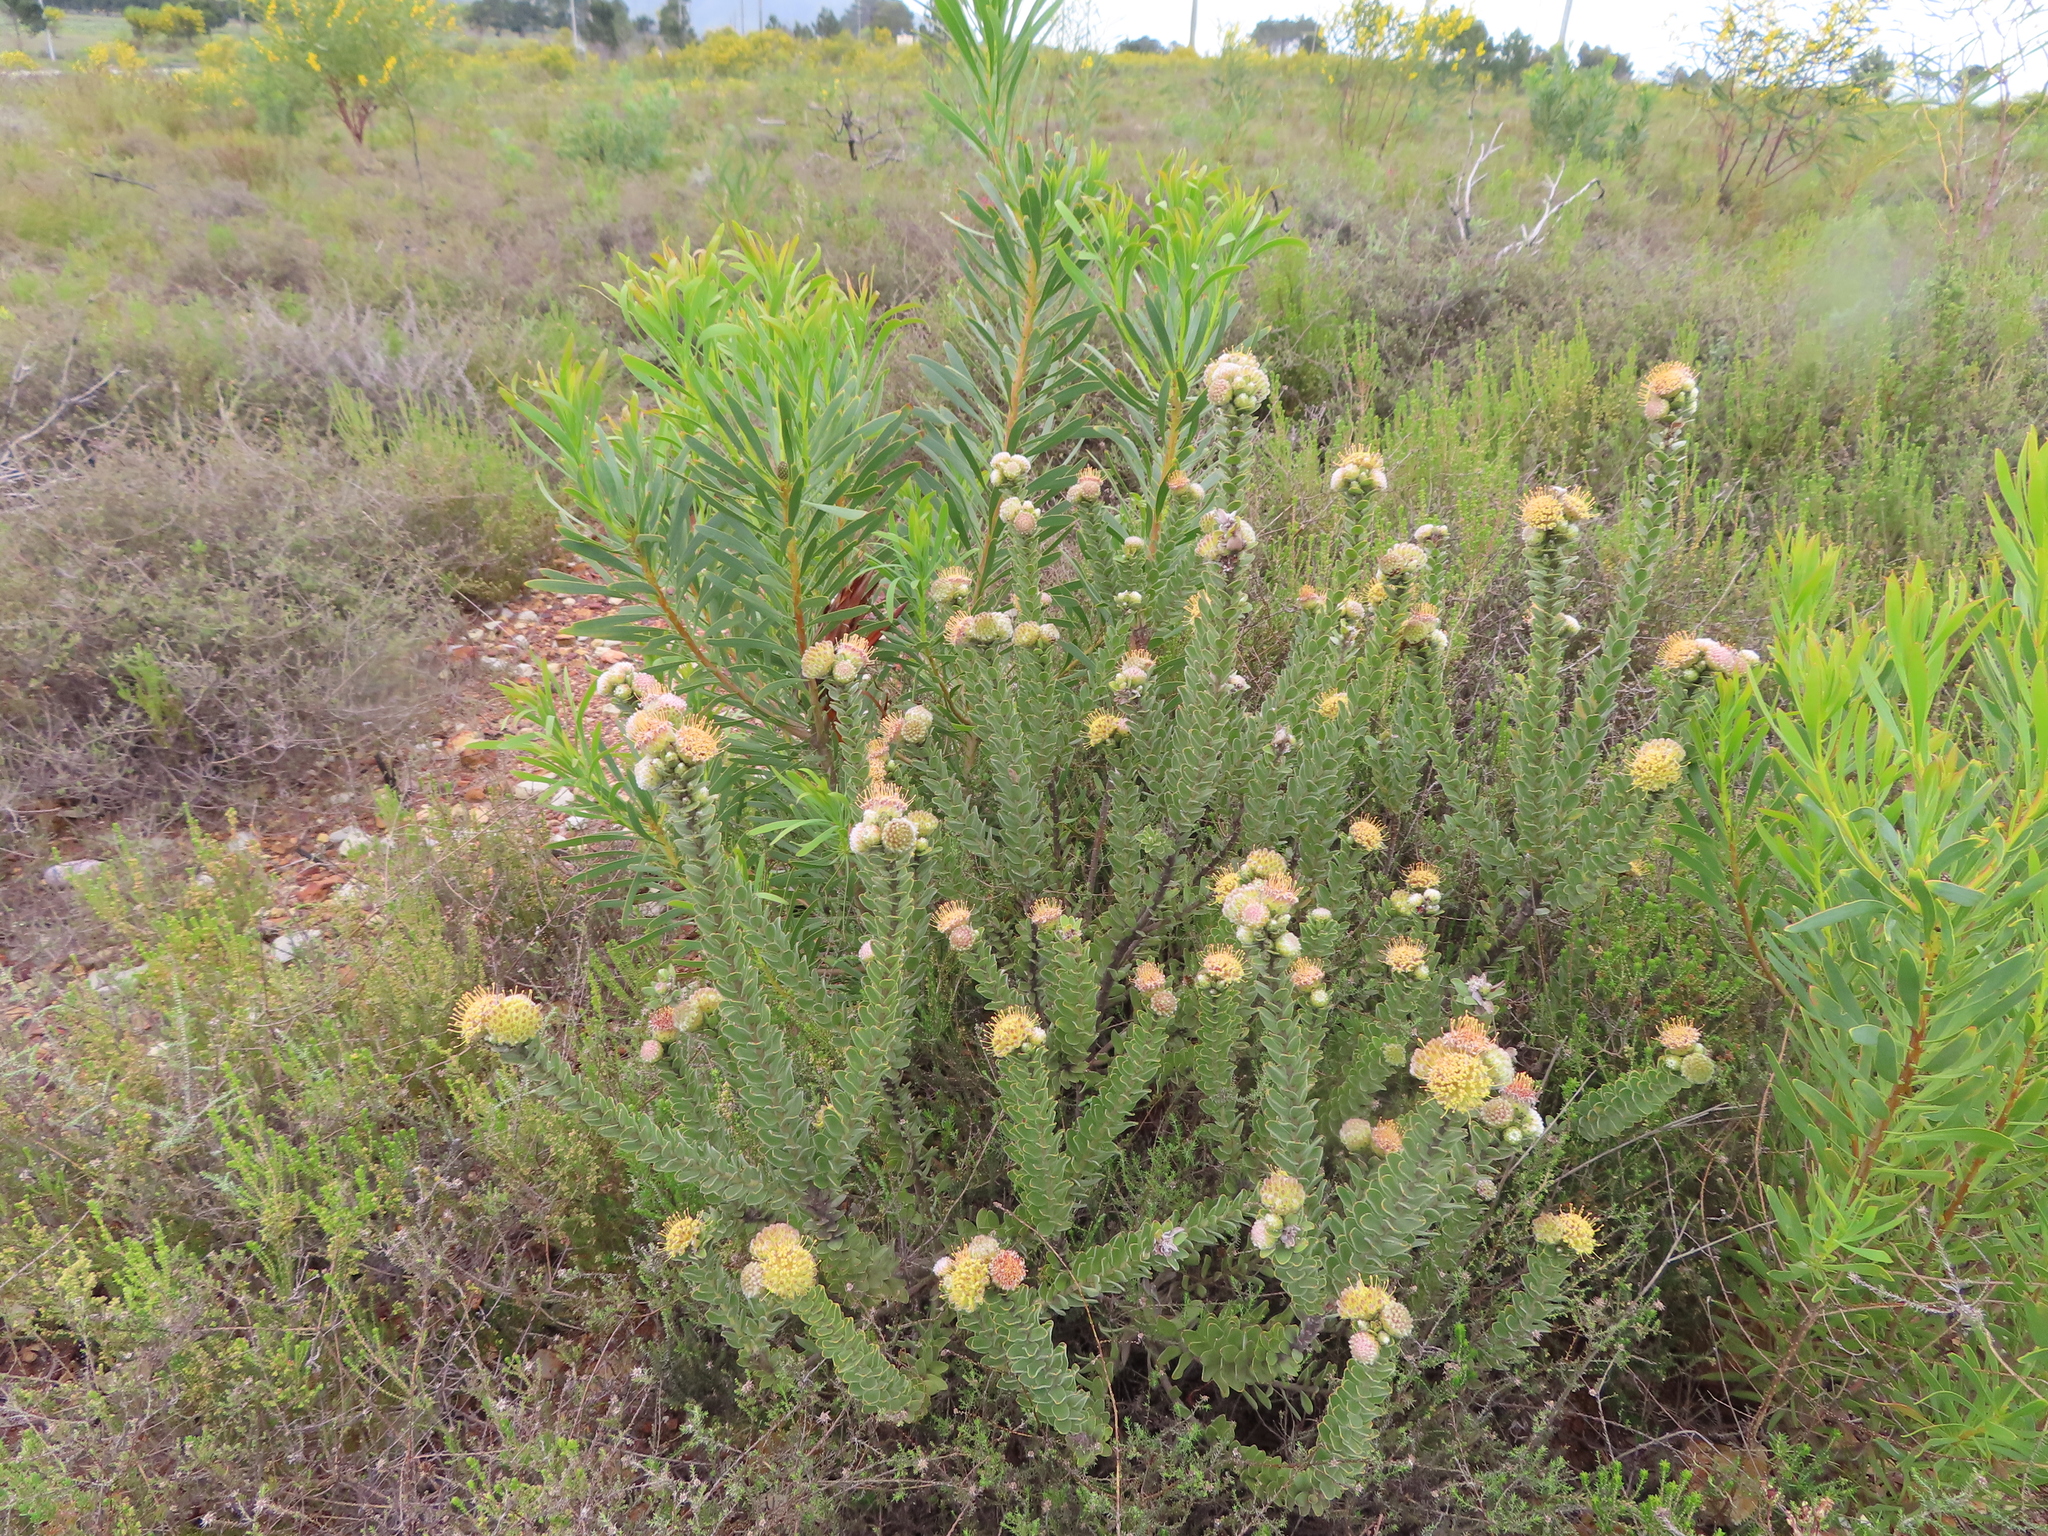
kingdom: Plantae
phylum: Tracheophyta
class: Magnoliopsida
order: Proteales
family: Proteaceae
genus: Leucospermum
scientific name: Leucospermum truncatulum
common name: Oval-leaf pincushion
